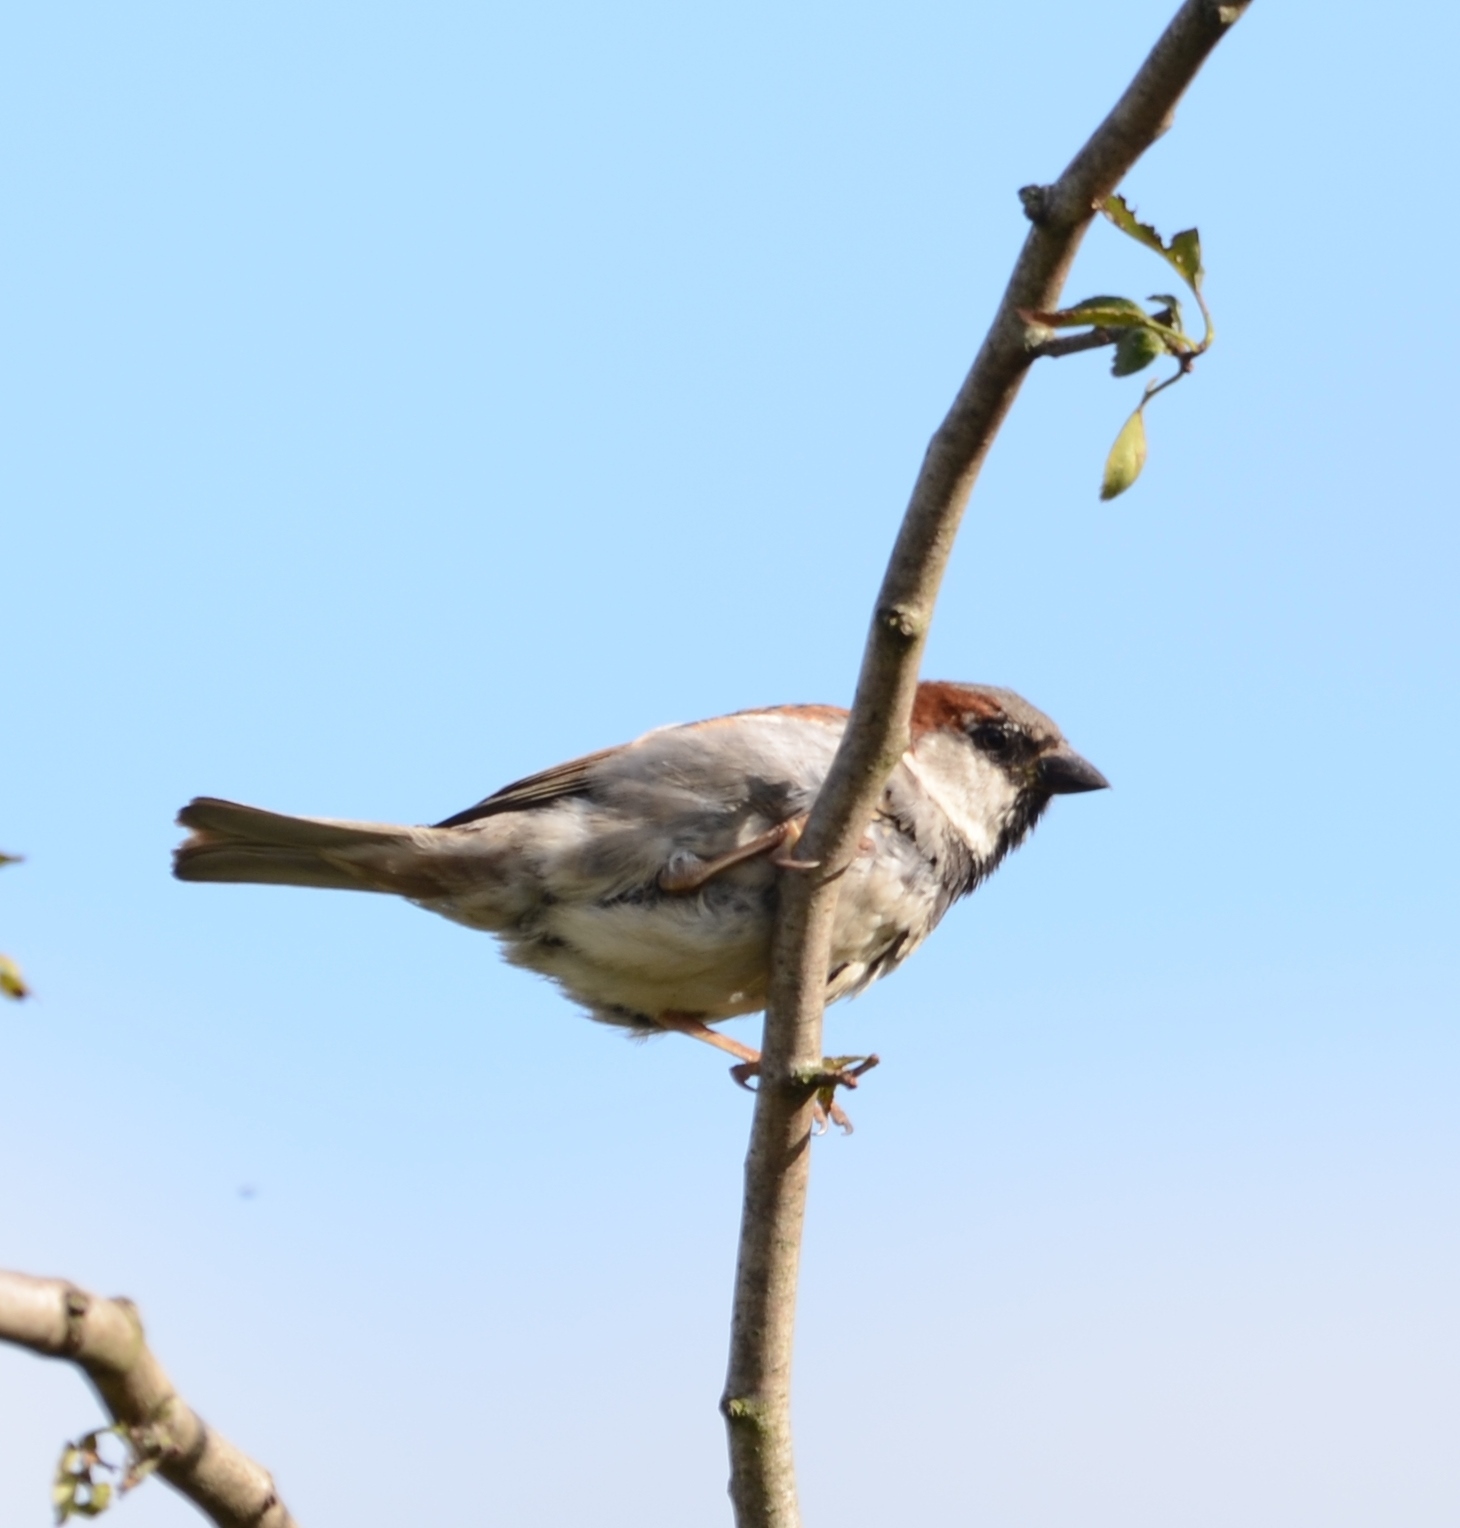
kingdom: Animalia
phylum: Chordata
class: Aves
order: Passeriformes
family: Passeridae
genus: Passer
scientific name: Passer domesticus
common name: House sparrow
